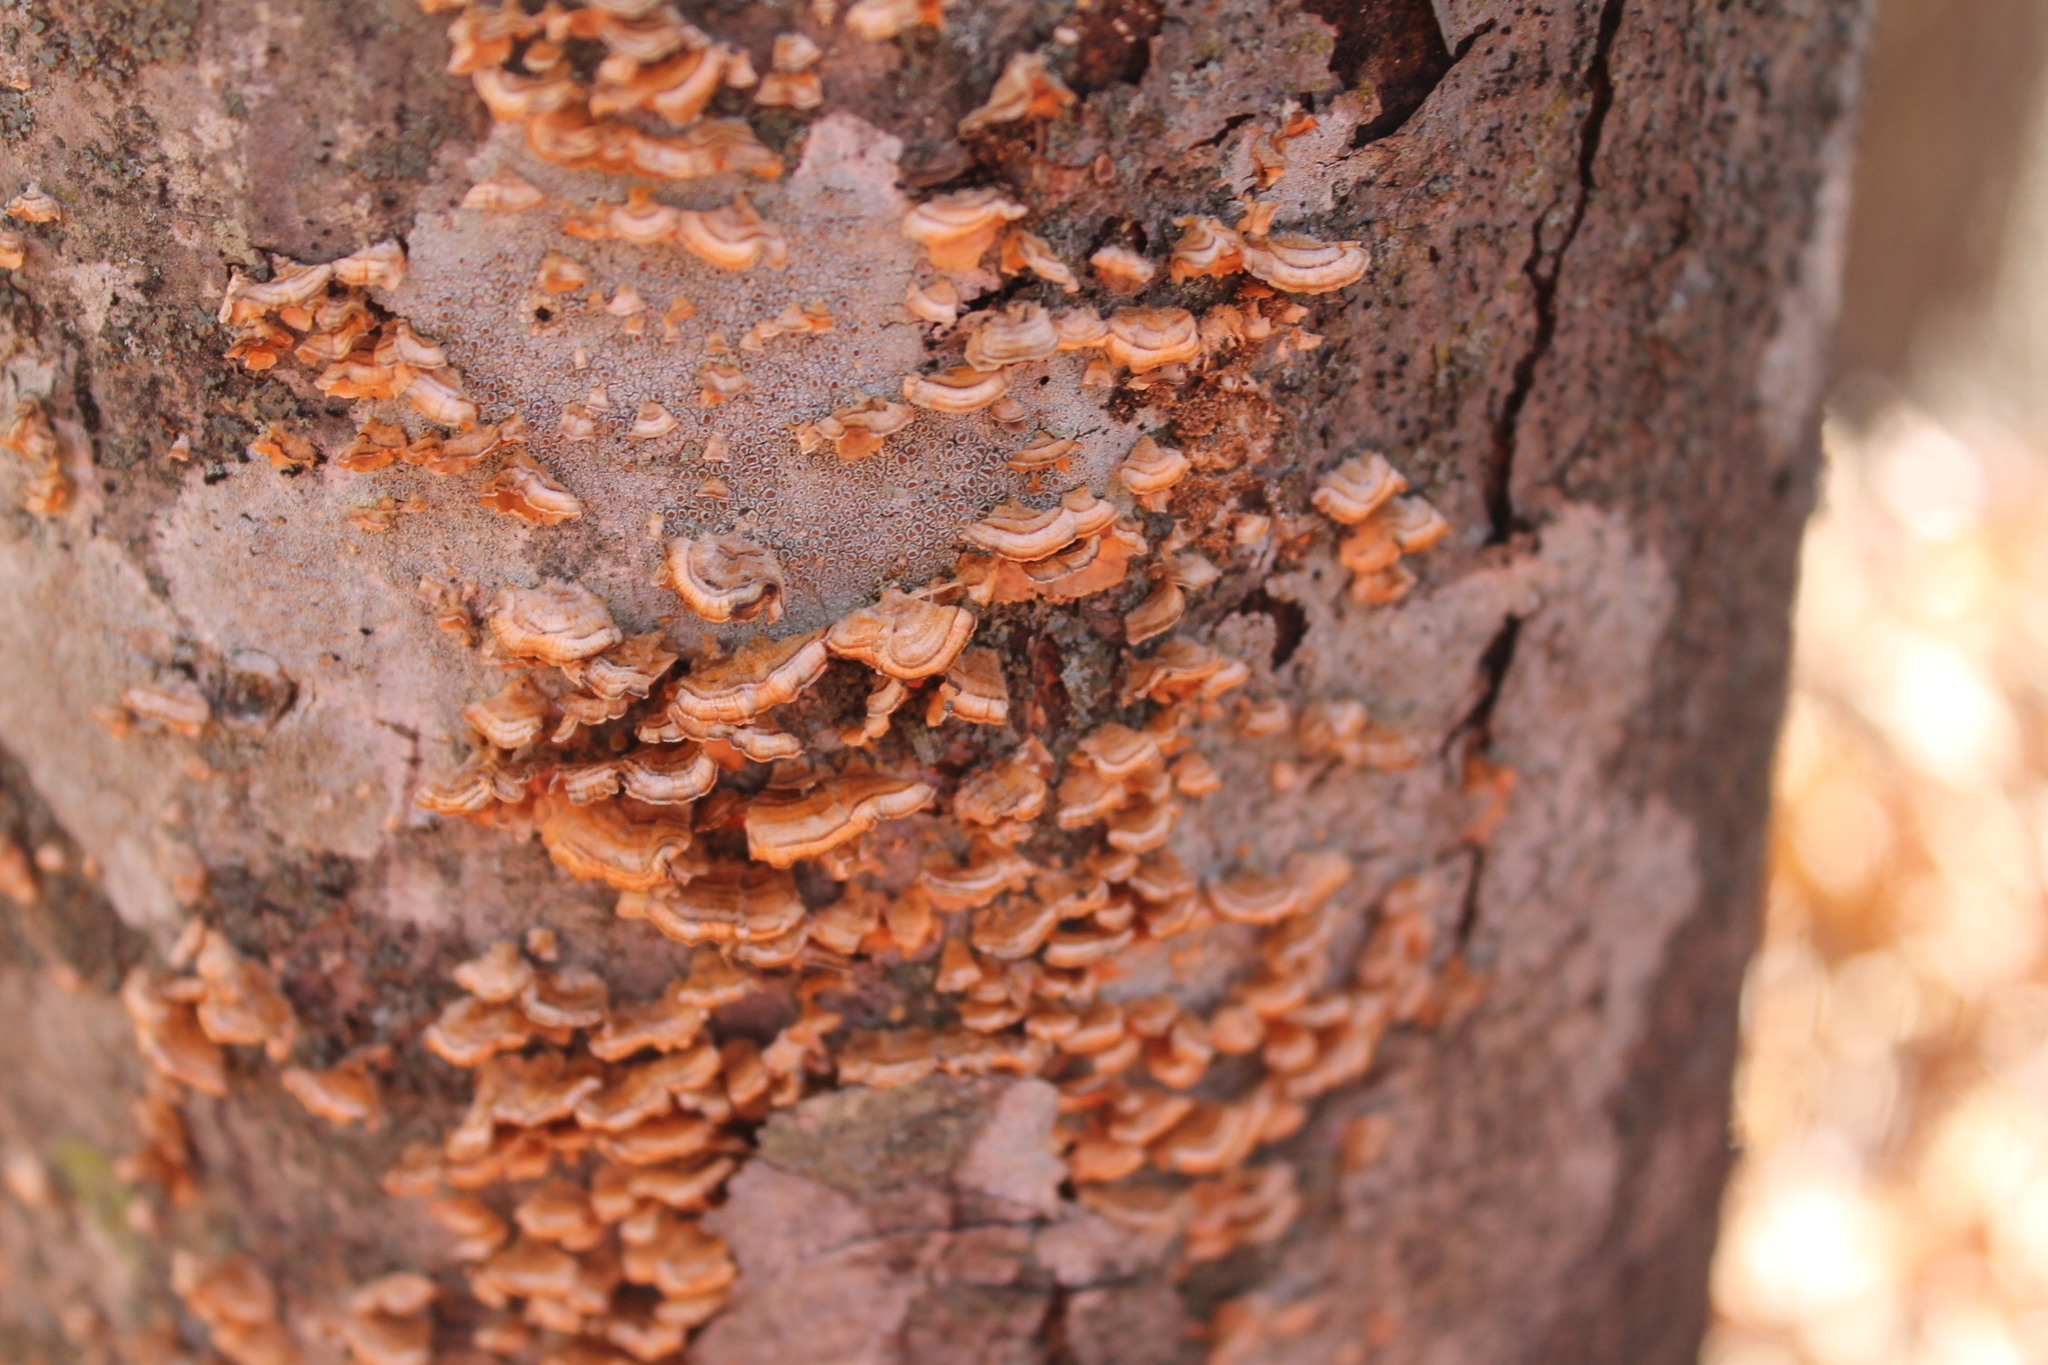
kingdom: Fungi
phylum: Basidiomycota
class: Agaricomycetes
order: Russulales
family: Stereaceae
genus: Stereum
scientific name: Stereum complicatum
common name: Crowded parchment
